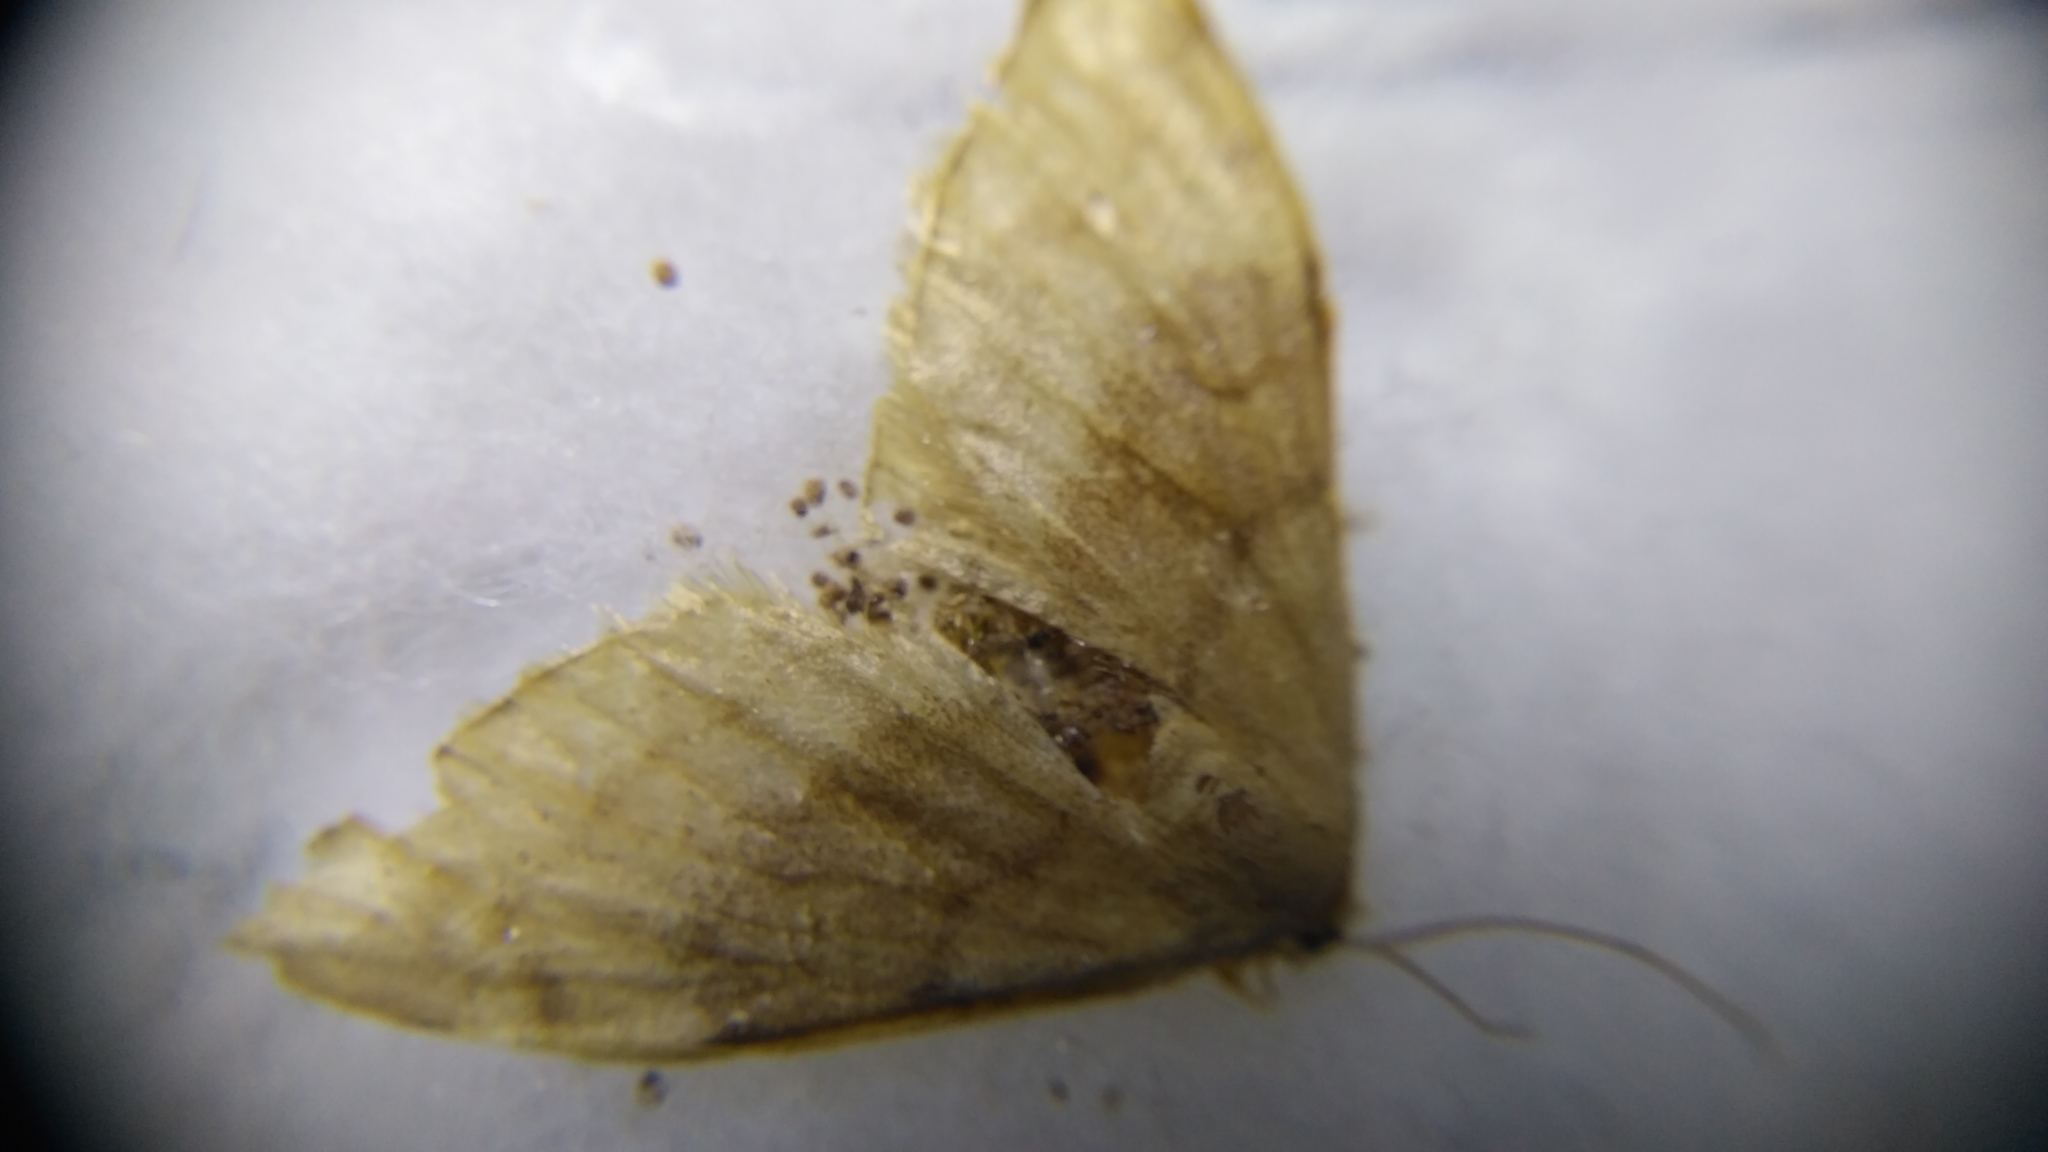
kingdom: Animalia
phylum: Arthropoda
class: Insecta
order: Lepidoptera
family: Lasiocampidae
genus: Malacosoma
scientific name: Malacosoma neustria
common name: The lackey
